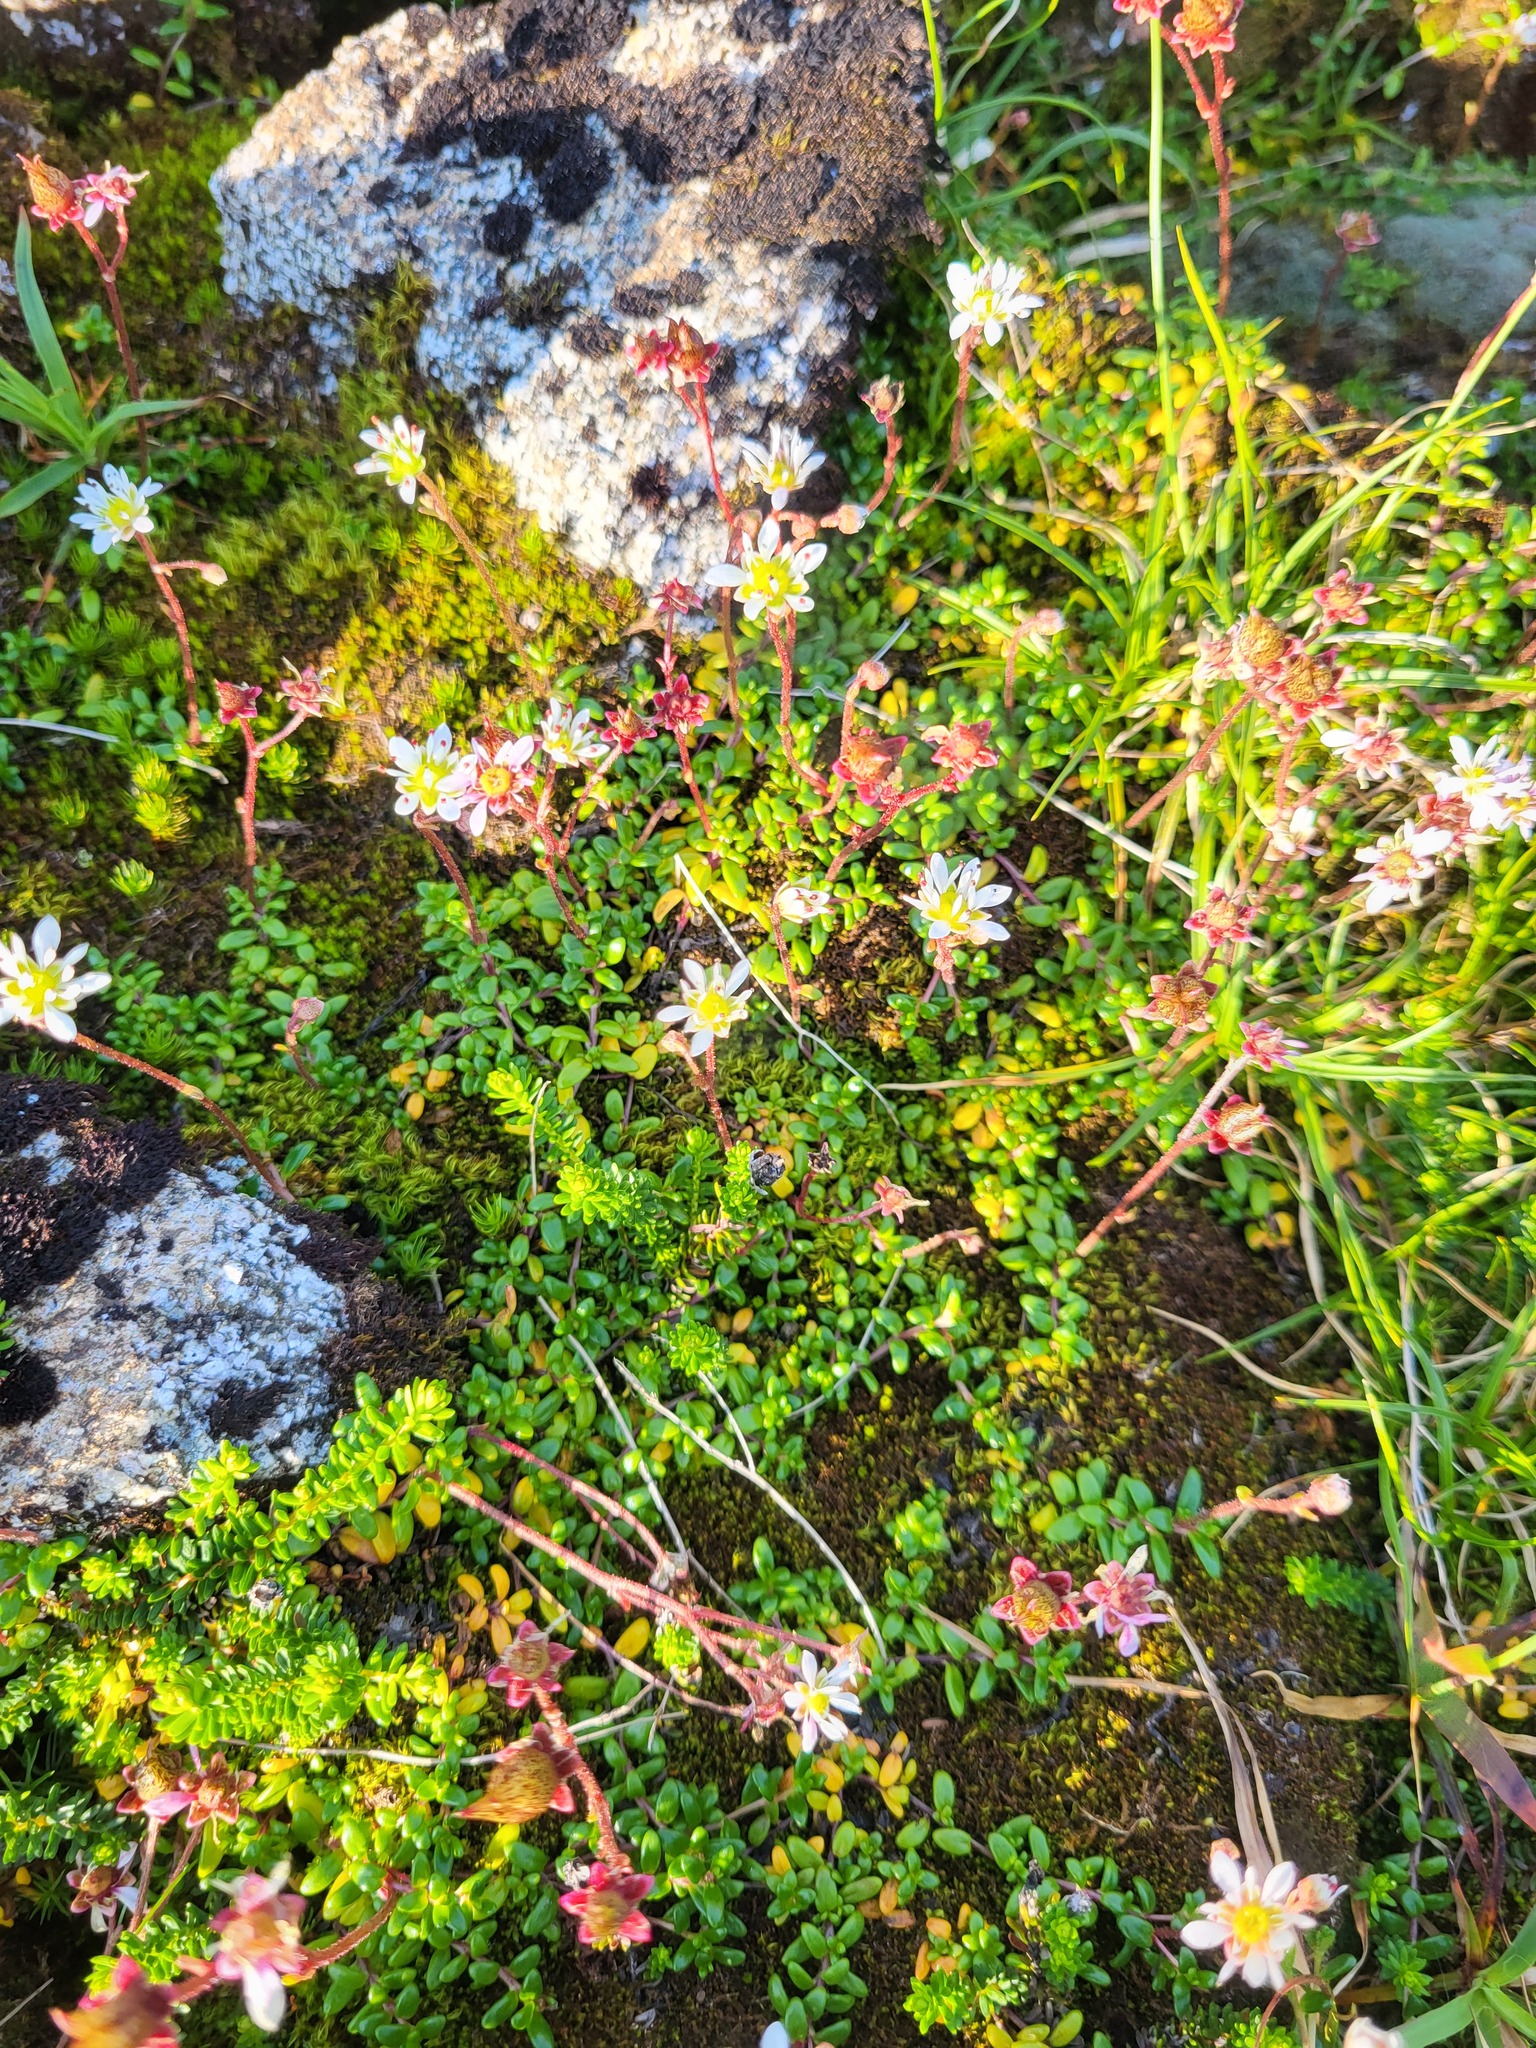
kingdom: Plantae
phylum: Tracheophyta
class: Magnoliopsida
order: Saxifragales
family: Saxifragaceae
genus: Micranthes
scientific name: Micranthes tolmiei
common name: Tolmie's saxifrage
